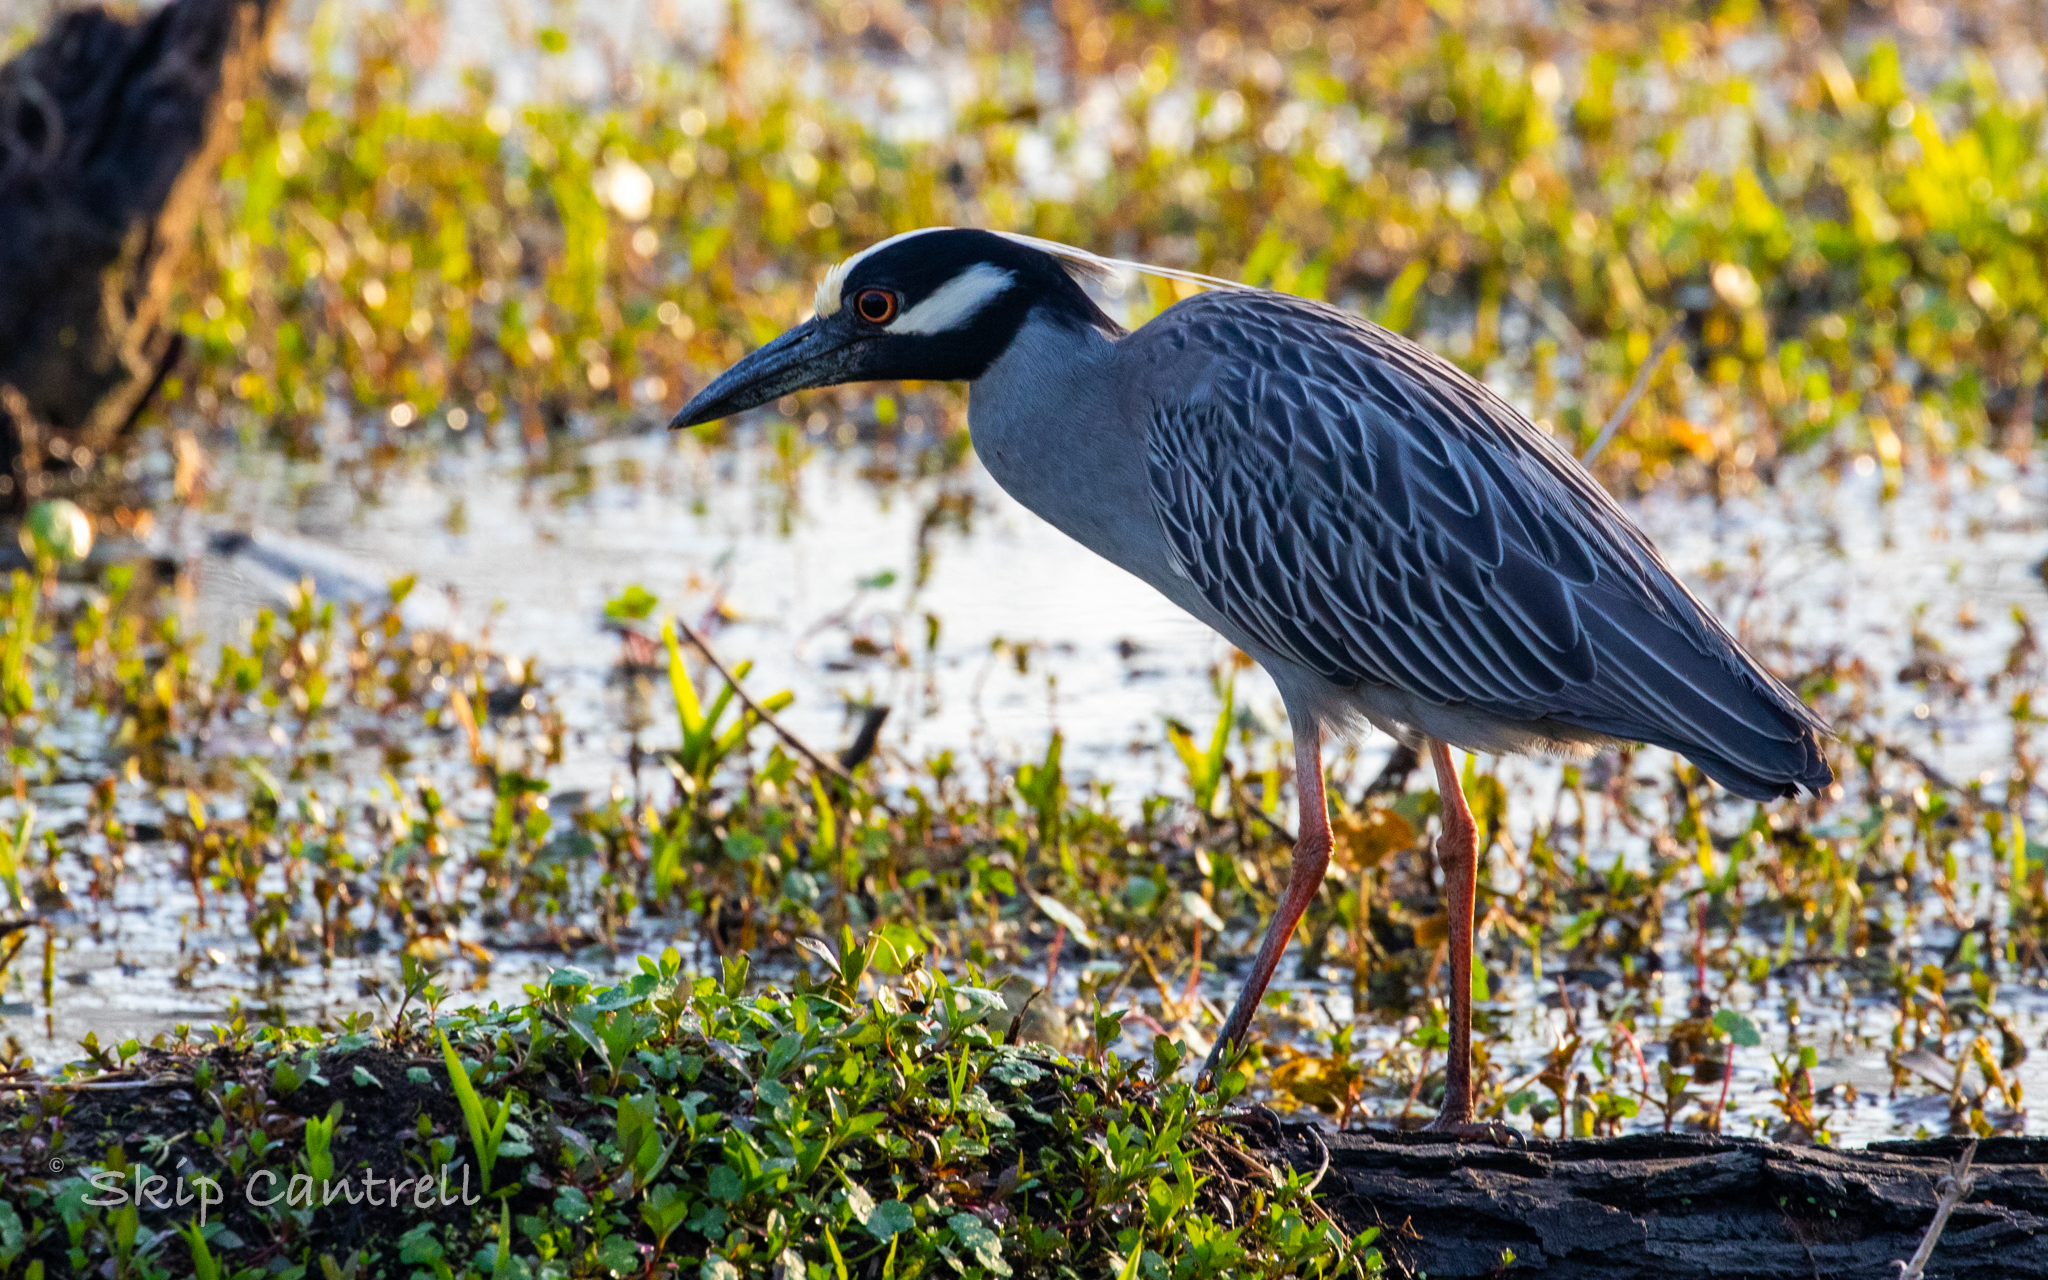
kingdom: Animalia
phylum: Chordata
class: Aves
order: Pelecaniformes
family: Ardeidae
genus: Nyctanassa
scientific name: Nyctanassa violacea
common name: Yellow-crowned night heron
